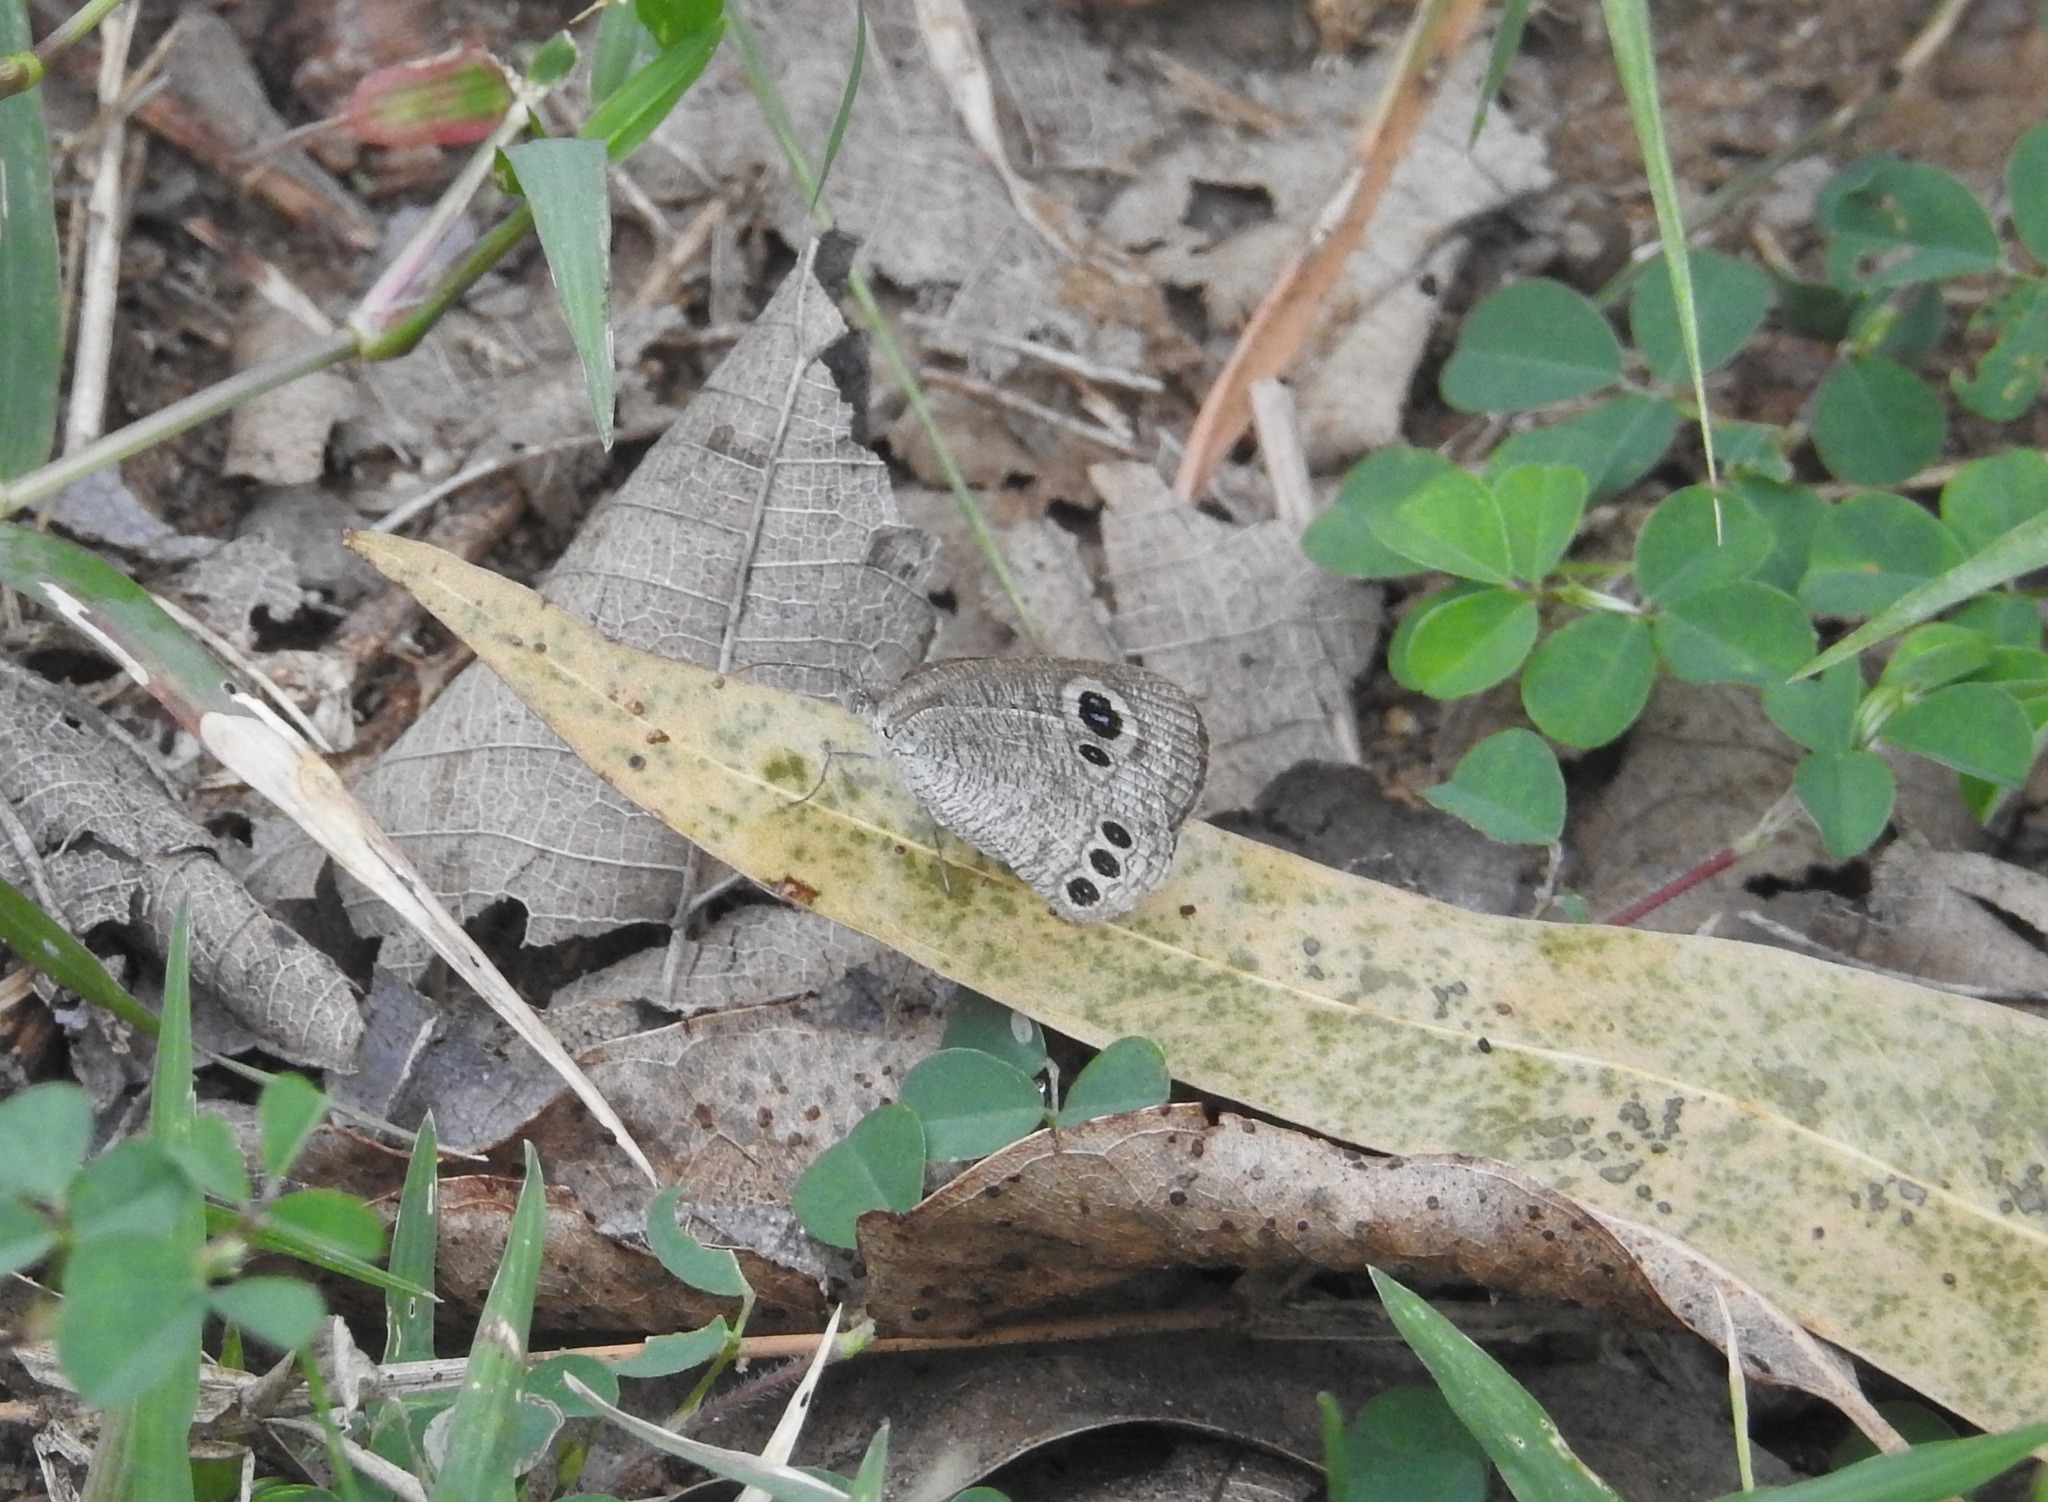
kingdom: Animalia
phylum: Arthropoda
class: Insecta
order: Lepidoptera
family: Nymphalidae
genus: Ypthima
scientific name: Ypthima huebneri
